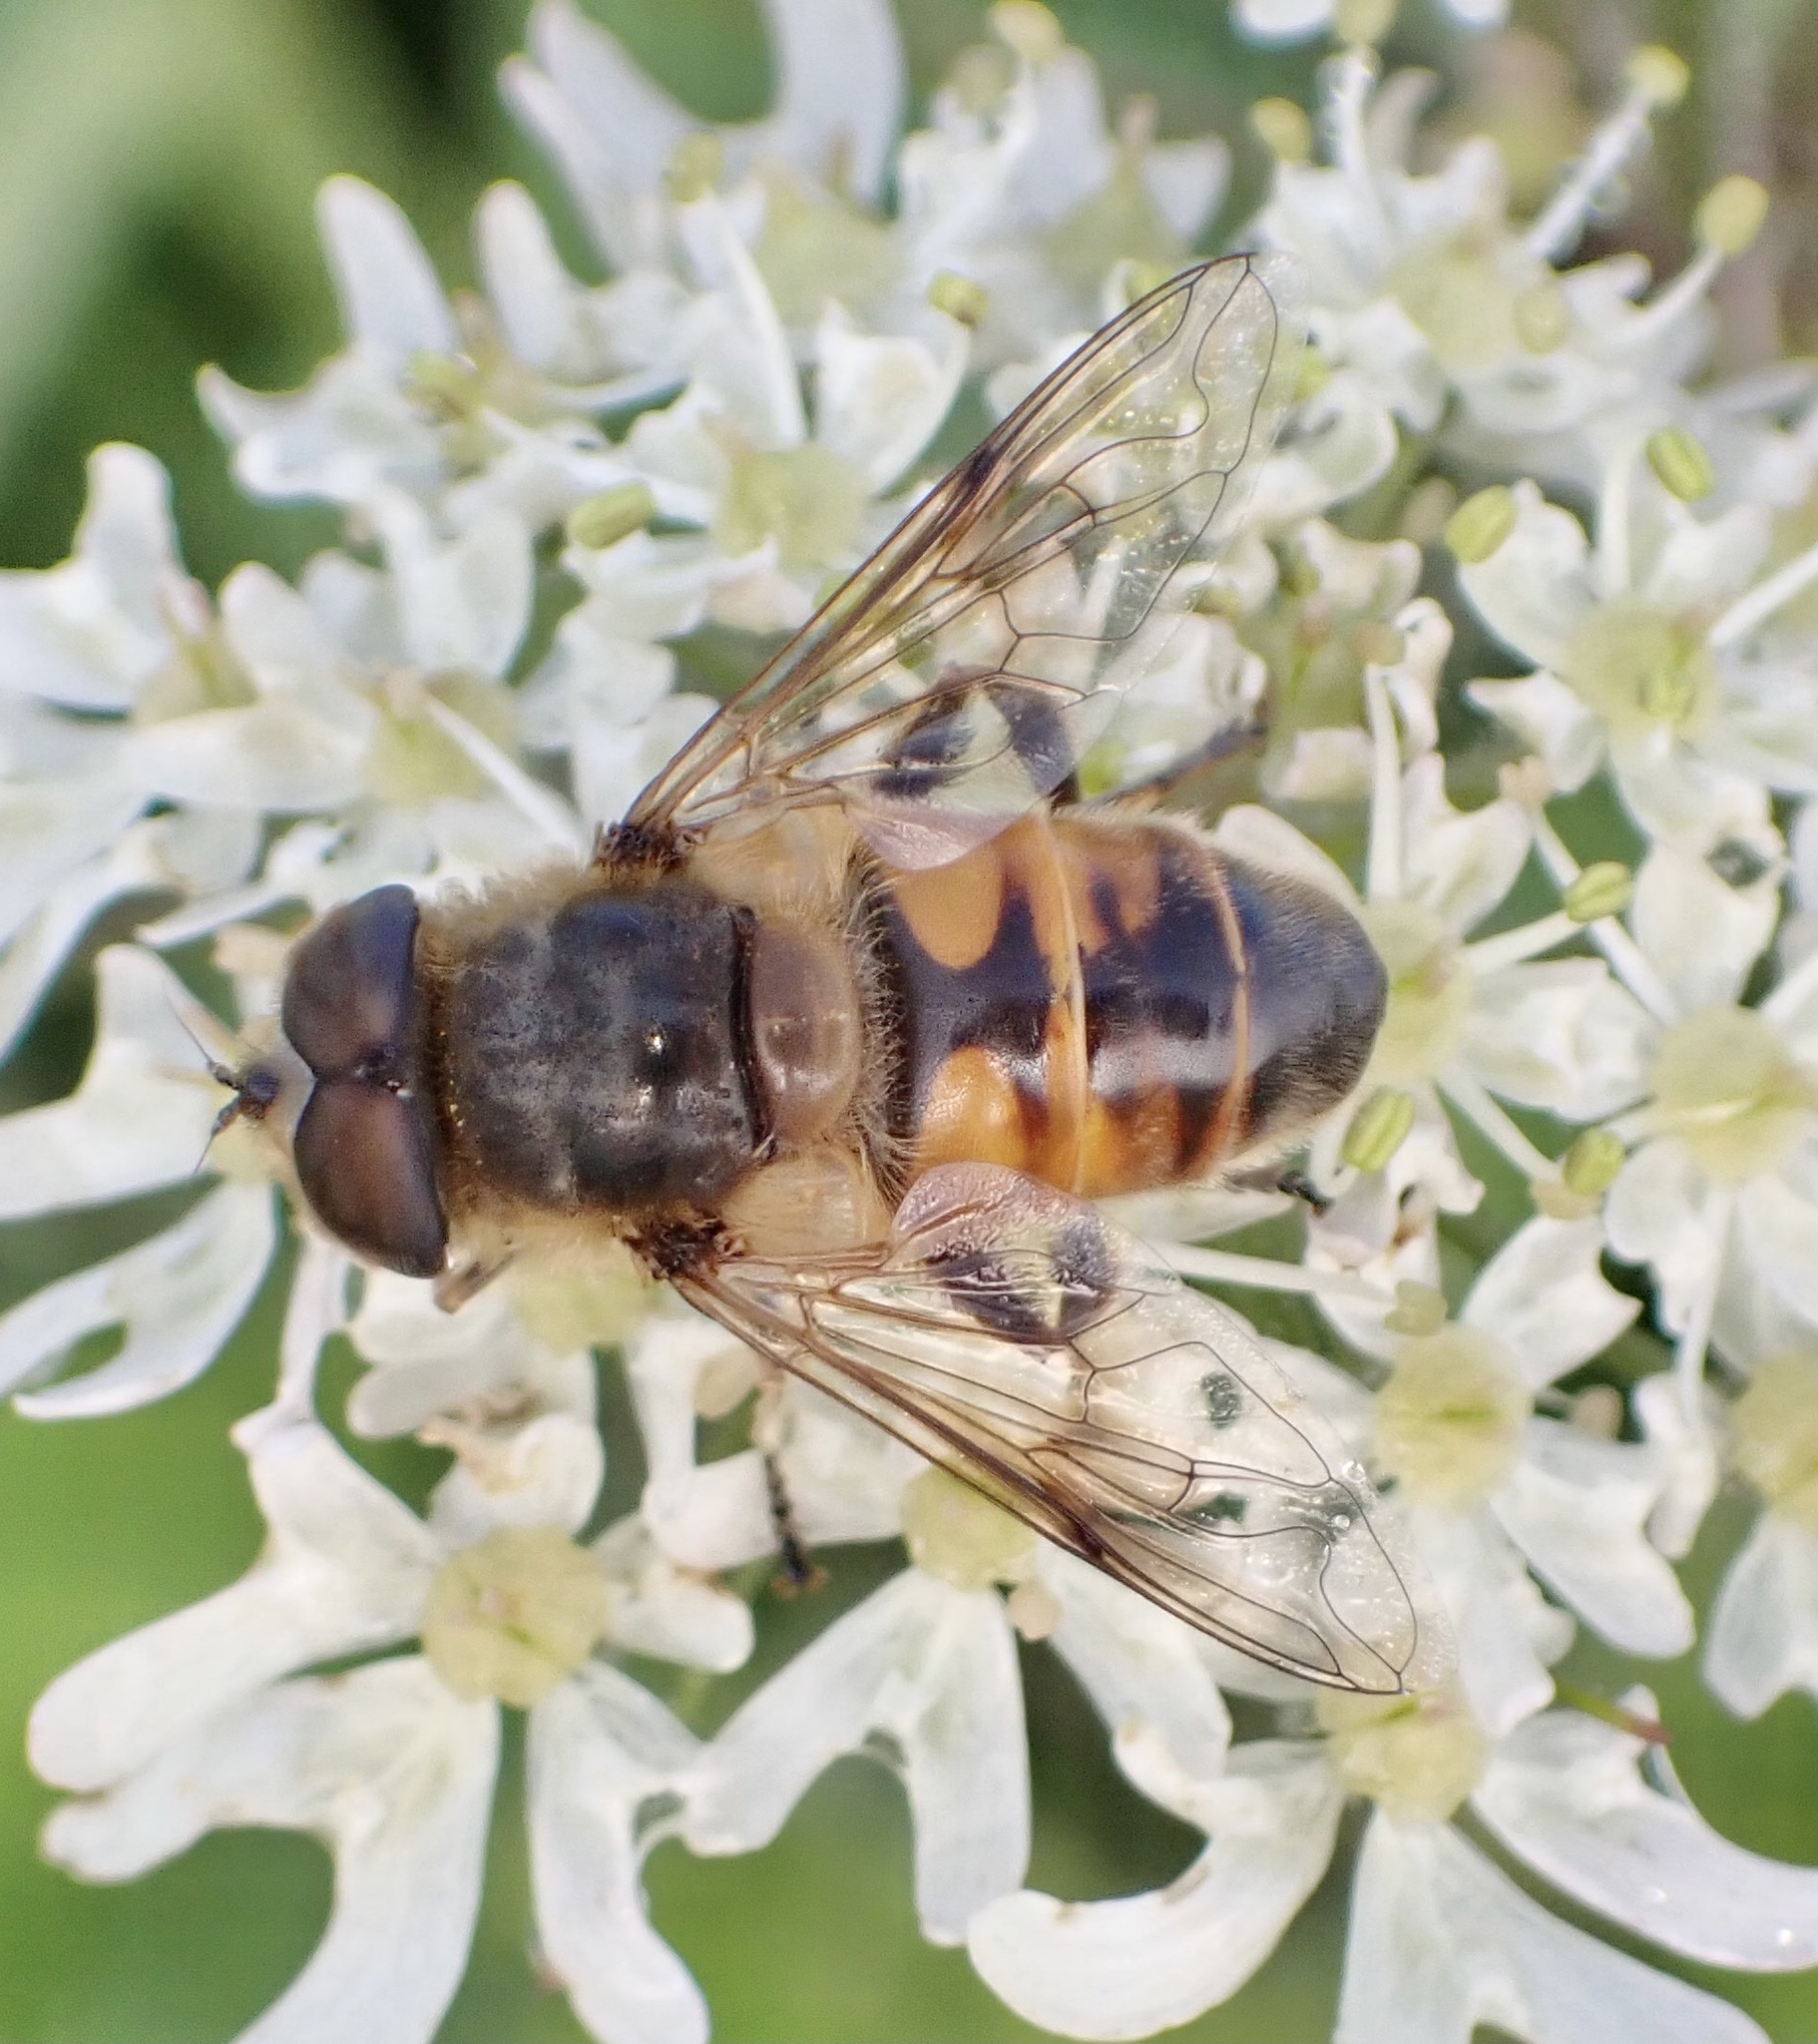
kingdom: Animalia
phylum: Arthropoda
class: Insecta
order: Diptera
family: Syrphidae
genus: Eristalis
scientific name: Eristalis tenax
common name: Drone fly
